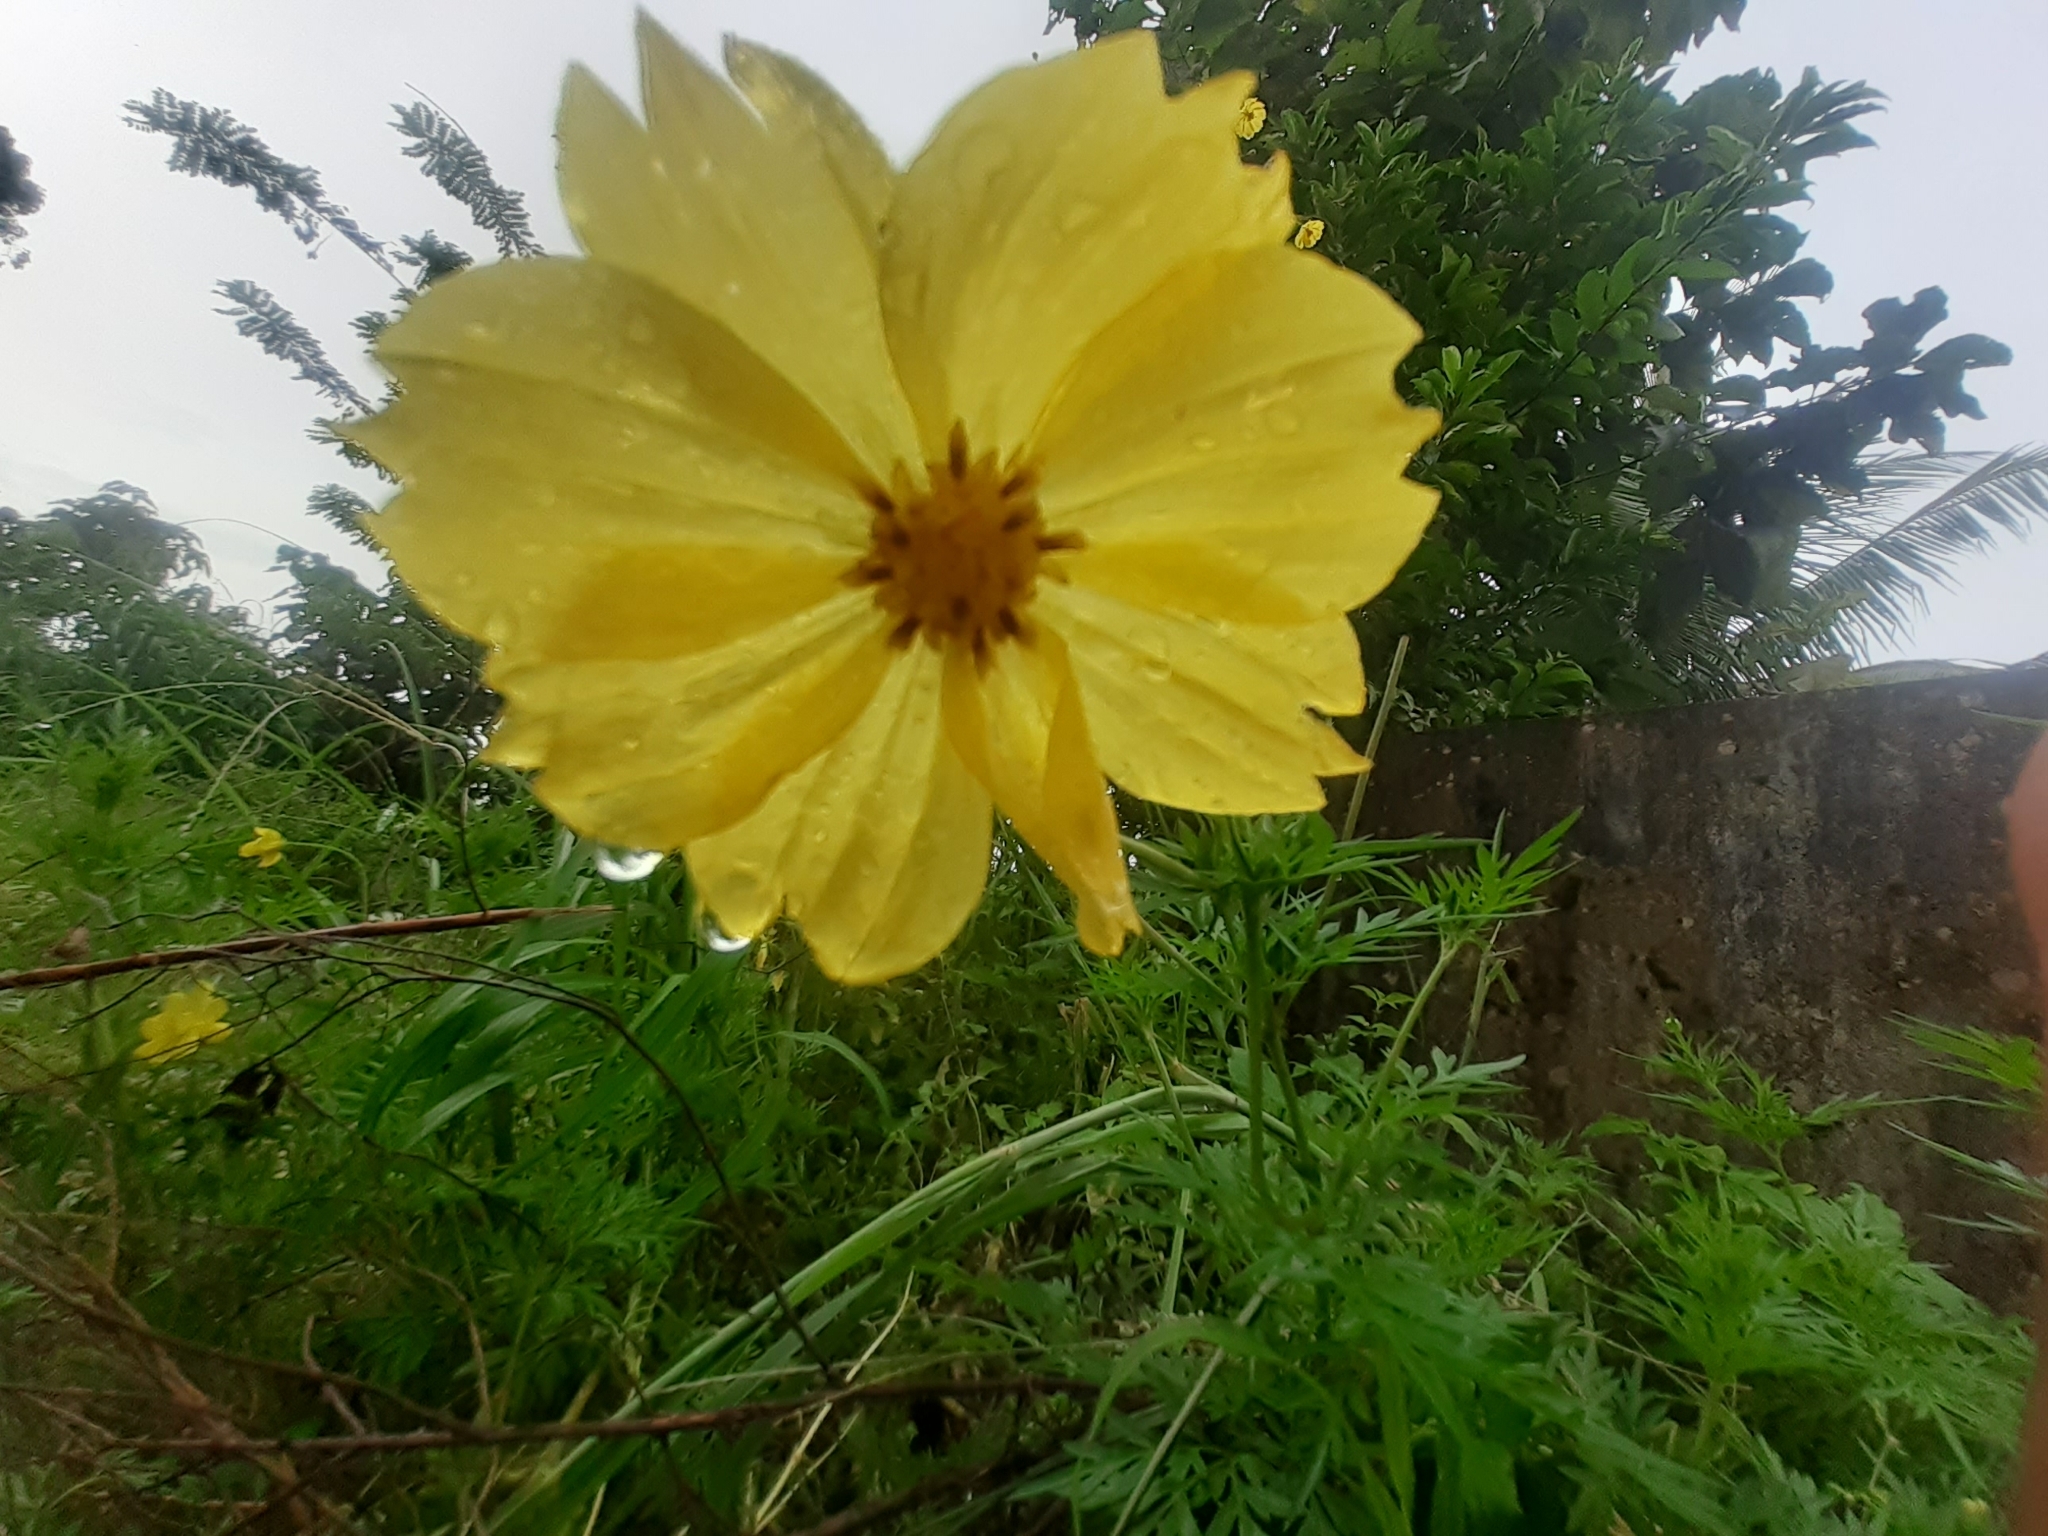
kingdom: Plantae
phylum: Tracheophyta
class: Magnoliopsida
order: Asterales
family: Asteraceae
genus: Cosmos
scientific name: Cosmos sulphureus
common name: Sulphur cosmos
